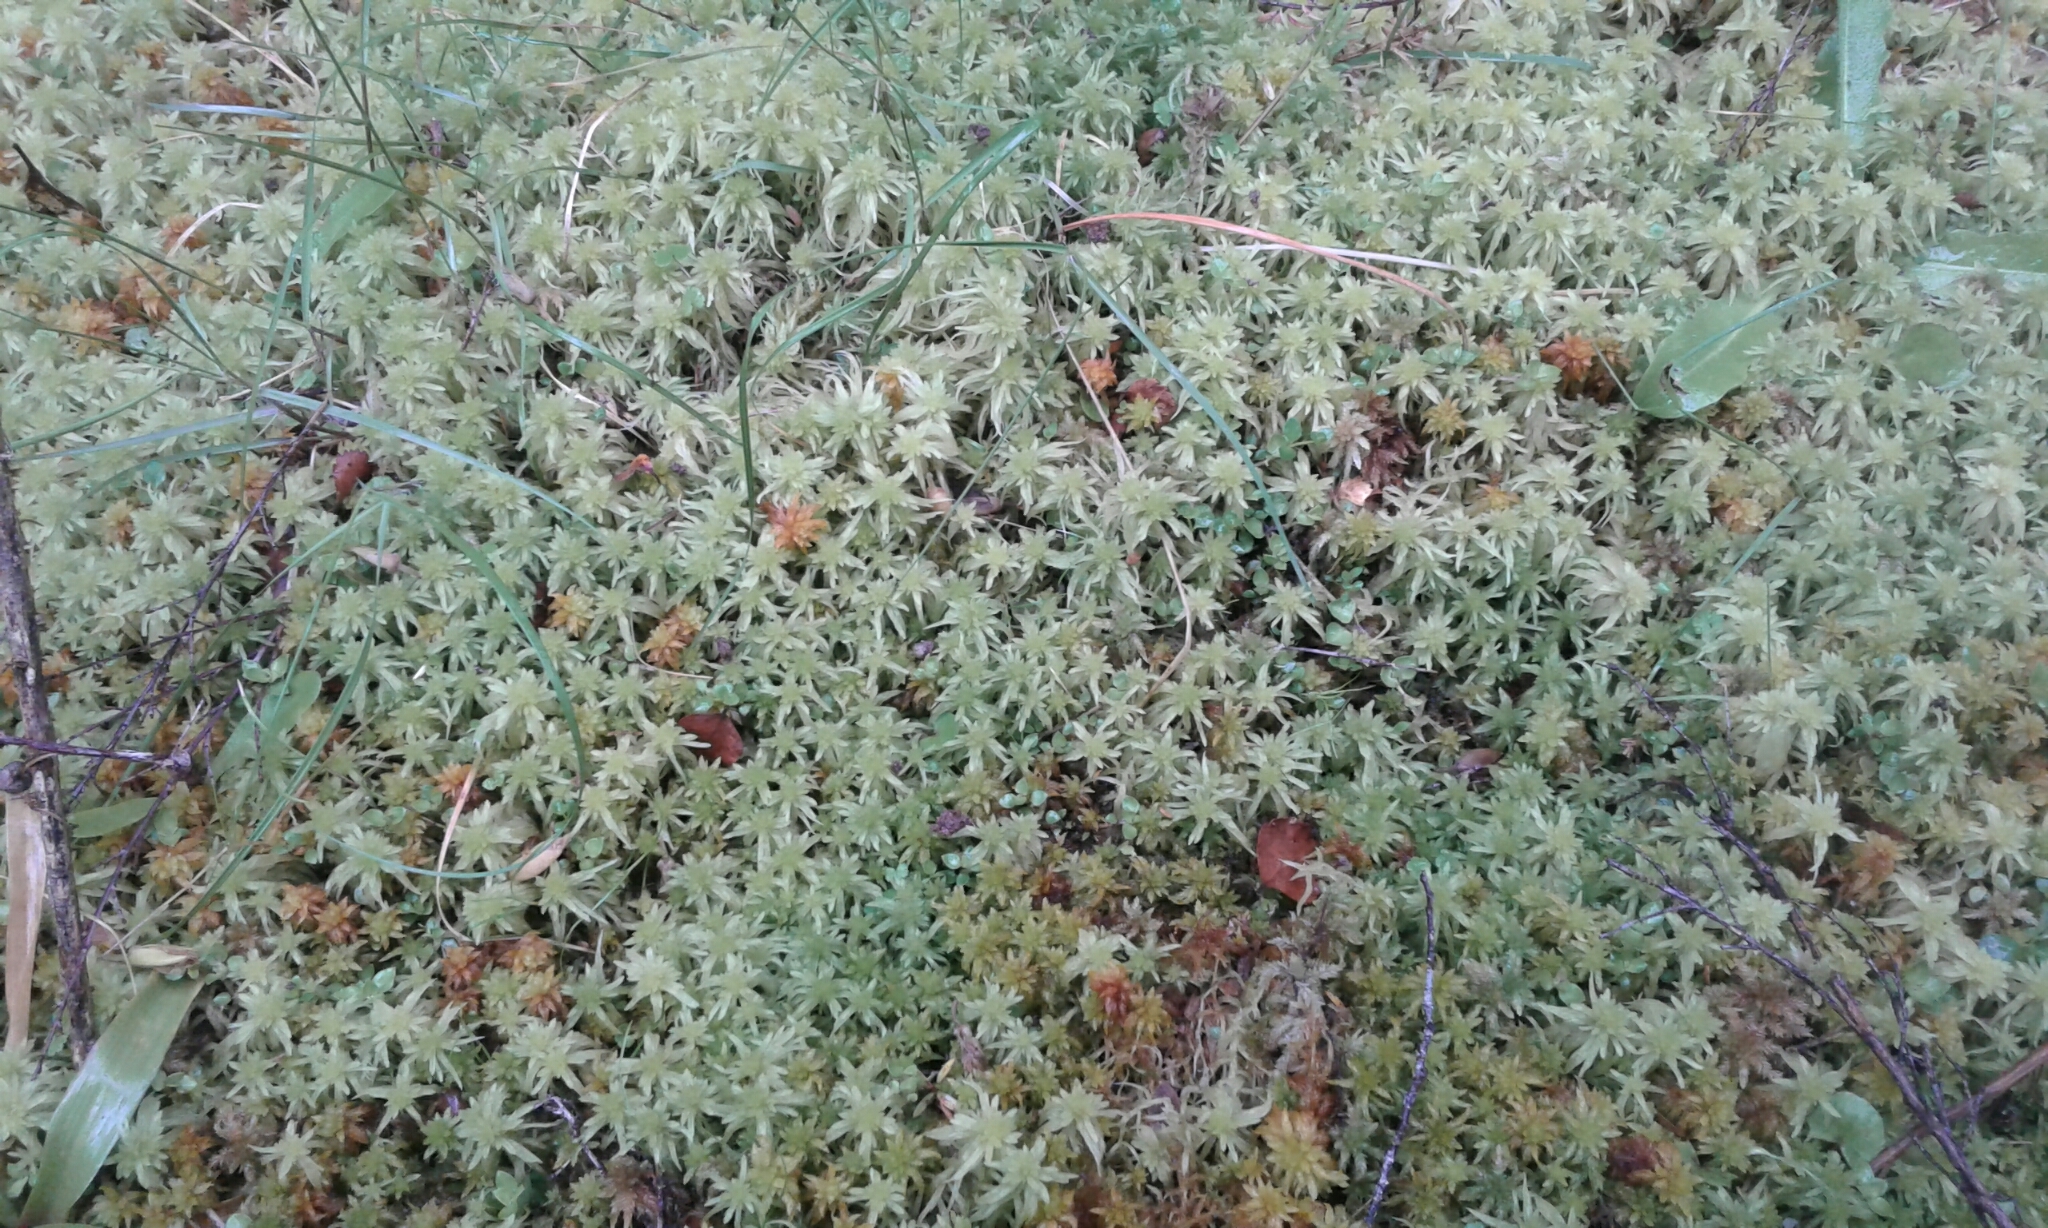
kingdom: Plantae
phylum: Bryophyta
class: Sphagnopsida
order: Sphagnales
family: Sphagnaceae
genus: Sphagnum
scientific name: Sphagnum
